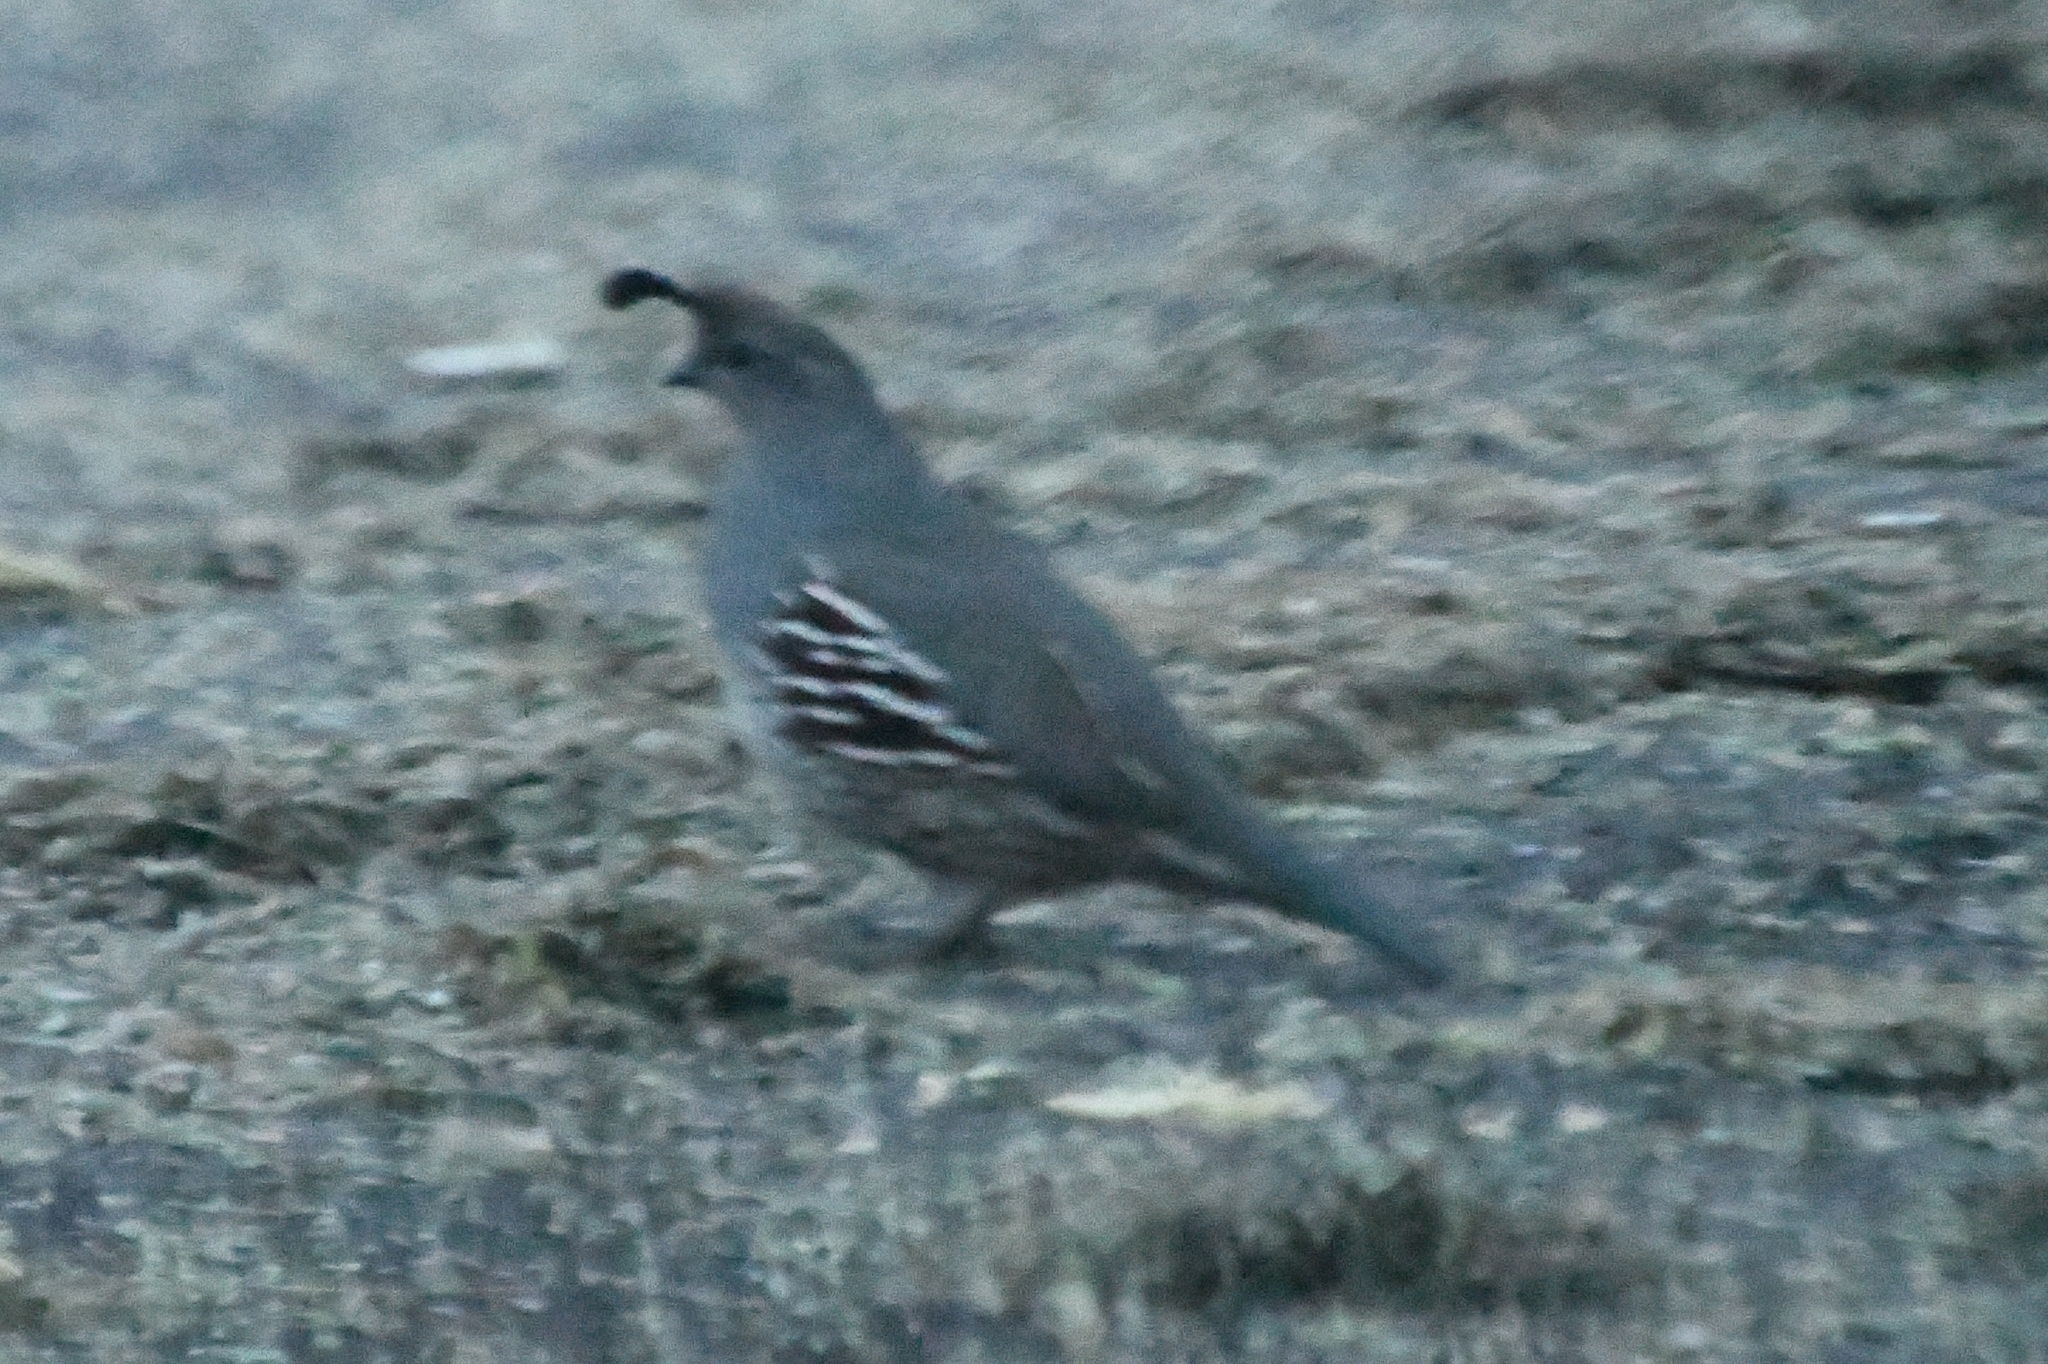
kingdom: Animalia
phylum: Chordata
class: Aves
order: Galliformes
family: Odontophoridae
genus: Callipepla
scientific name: Callipepla gambelii
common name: Gambel's quail
